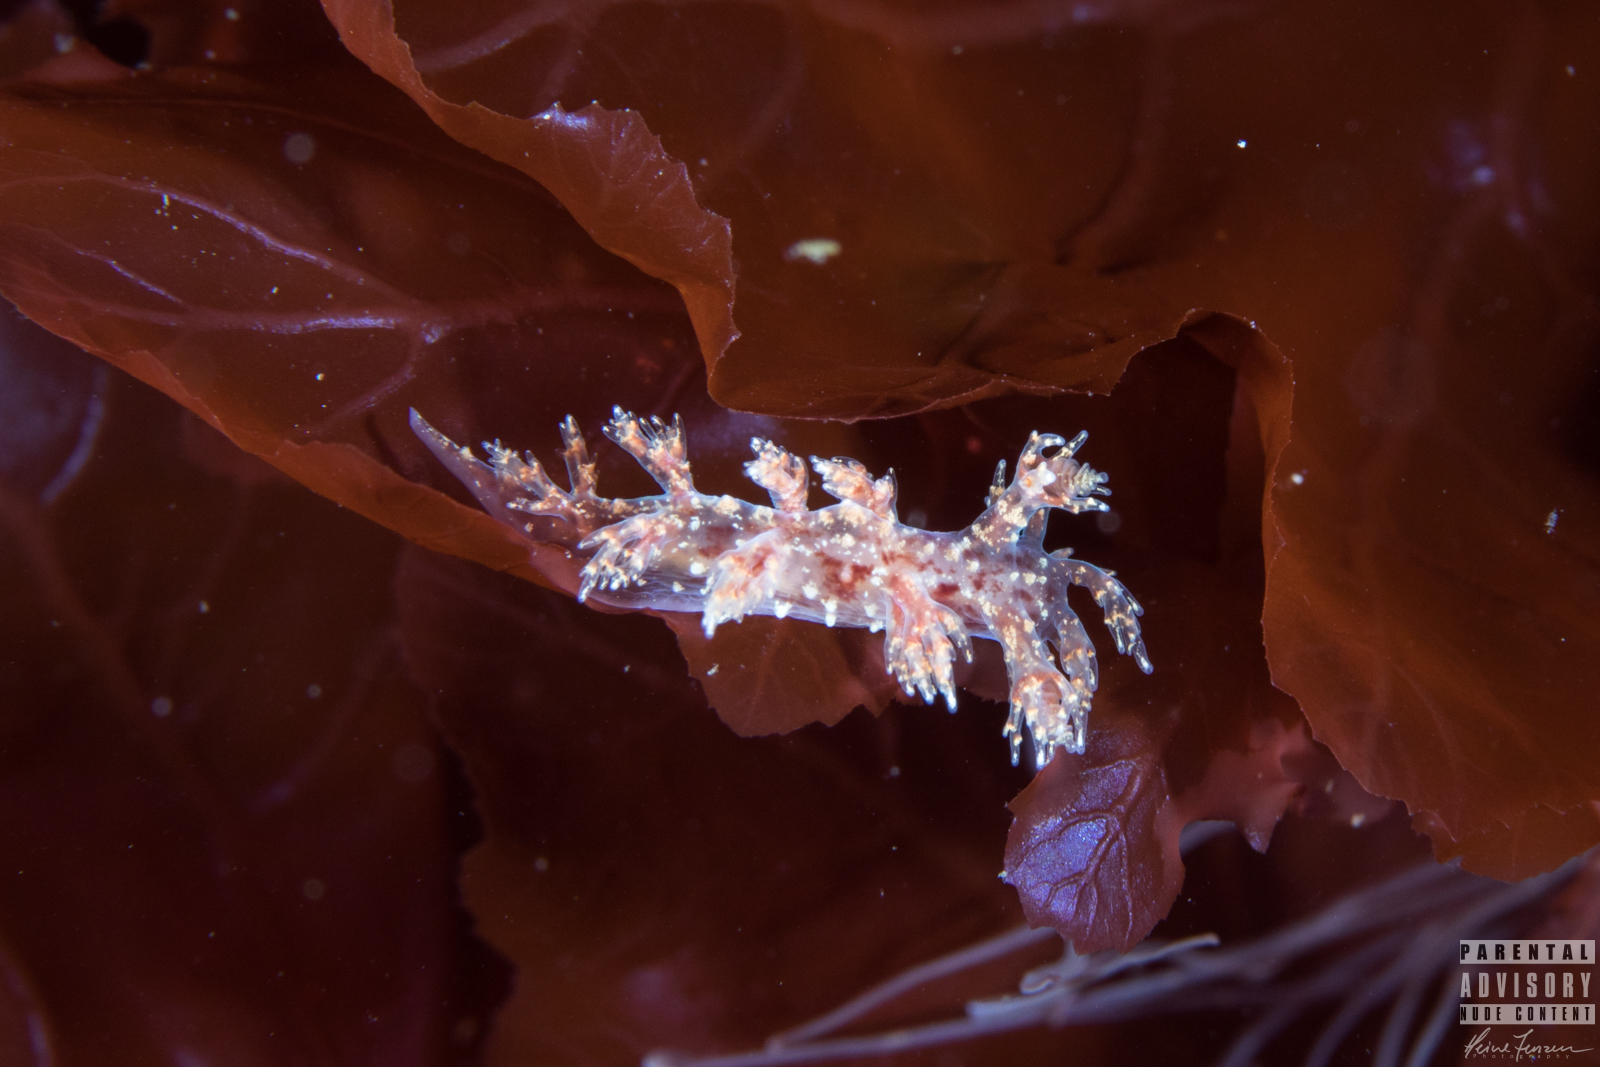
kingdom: Animalia
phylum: Mollusca
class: Gastropoda
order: Nudibranchia
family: Dendronotidae
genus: Dendronotus
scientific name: Dendronotus frondosus
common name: Bushy-backed nudibranch
